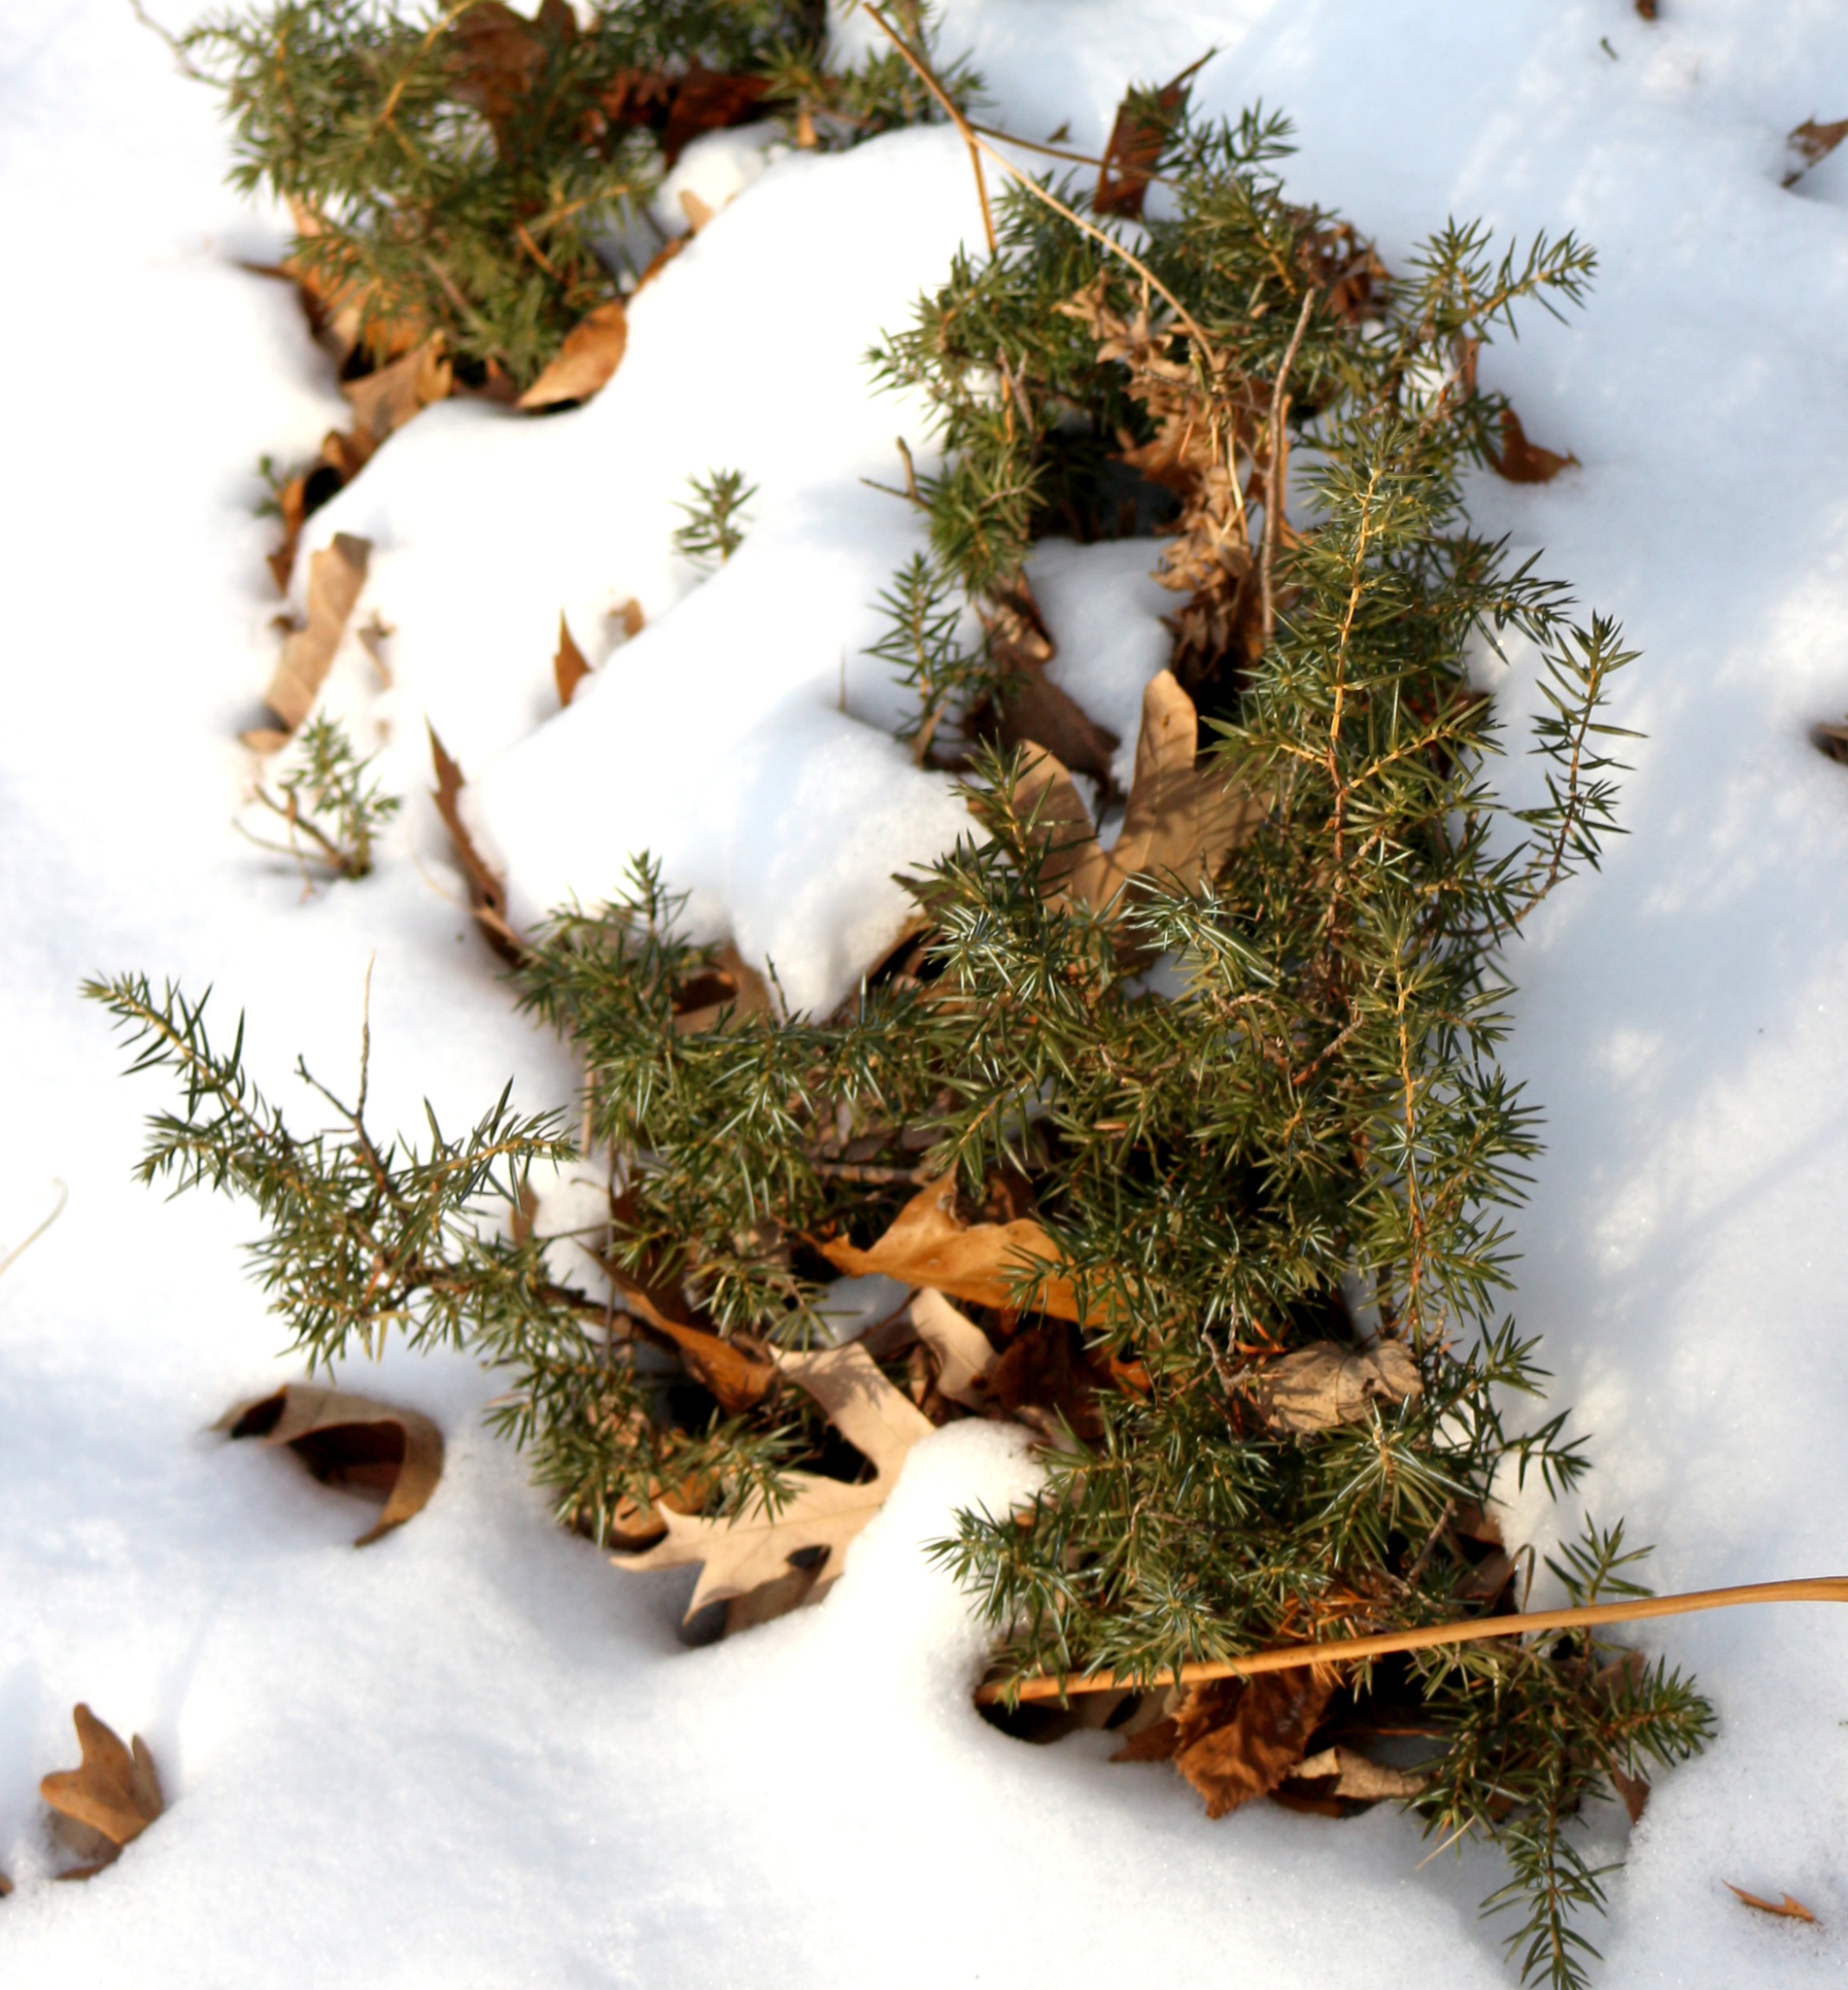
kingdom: Plantae
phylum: Tracheophyta
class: Pinopsida
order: Pinales
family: Cupressaceae
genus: Juniperus
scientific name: Juniperus communis
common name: Common juniper
